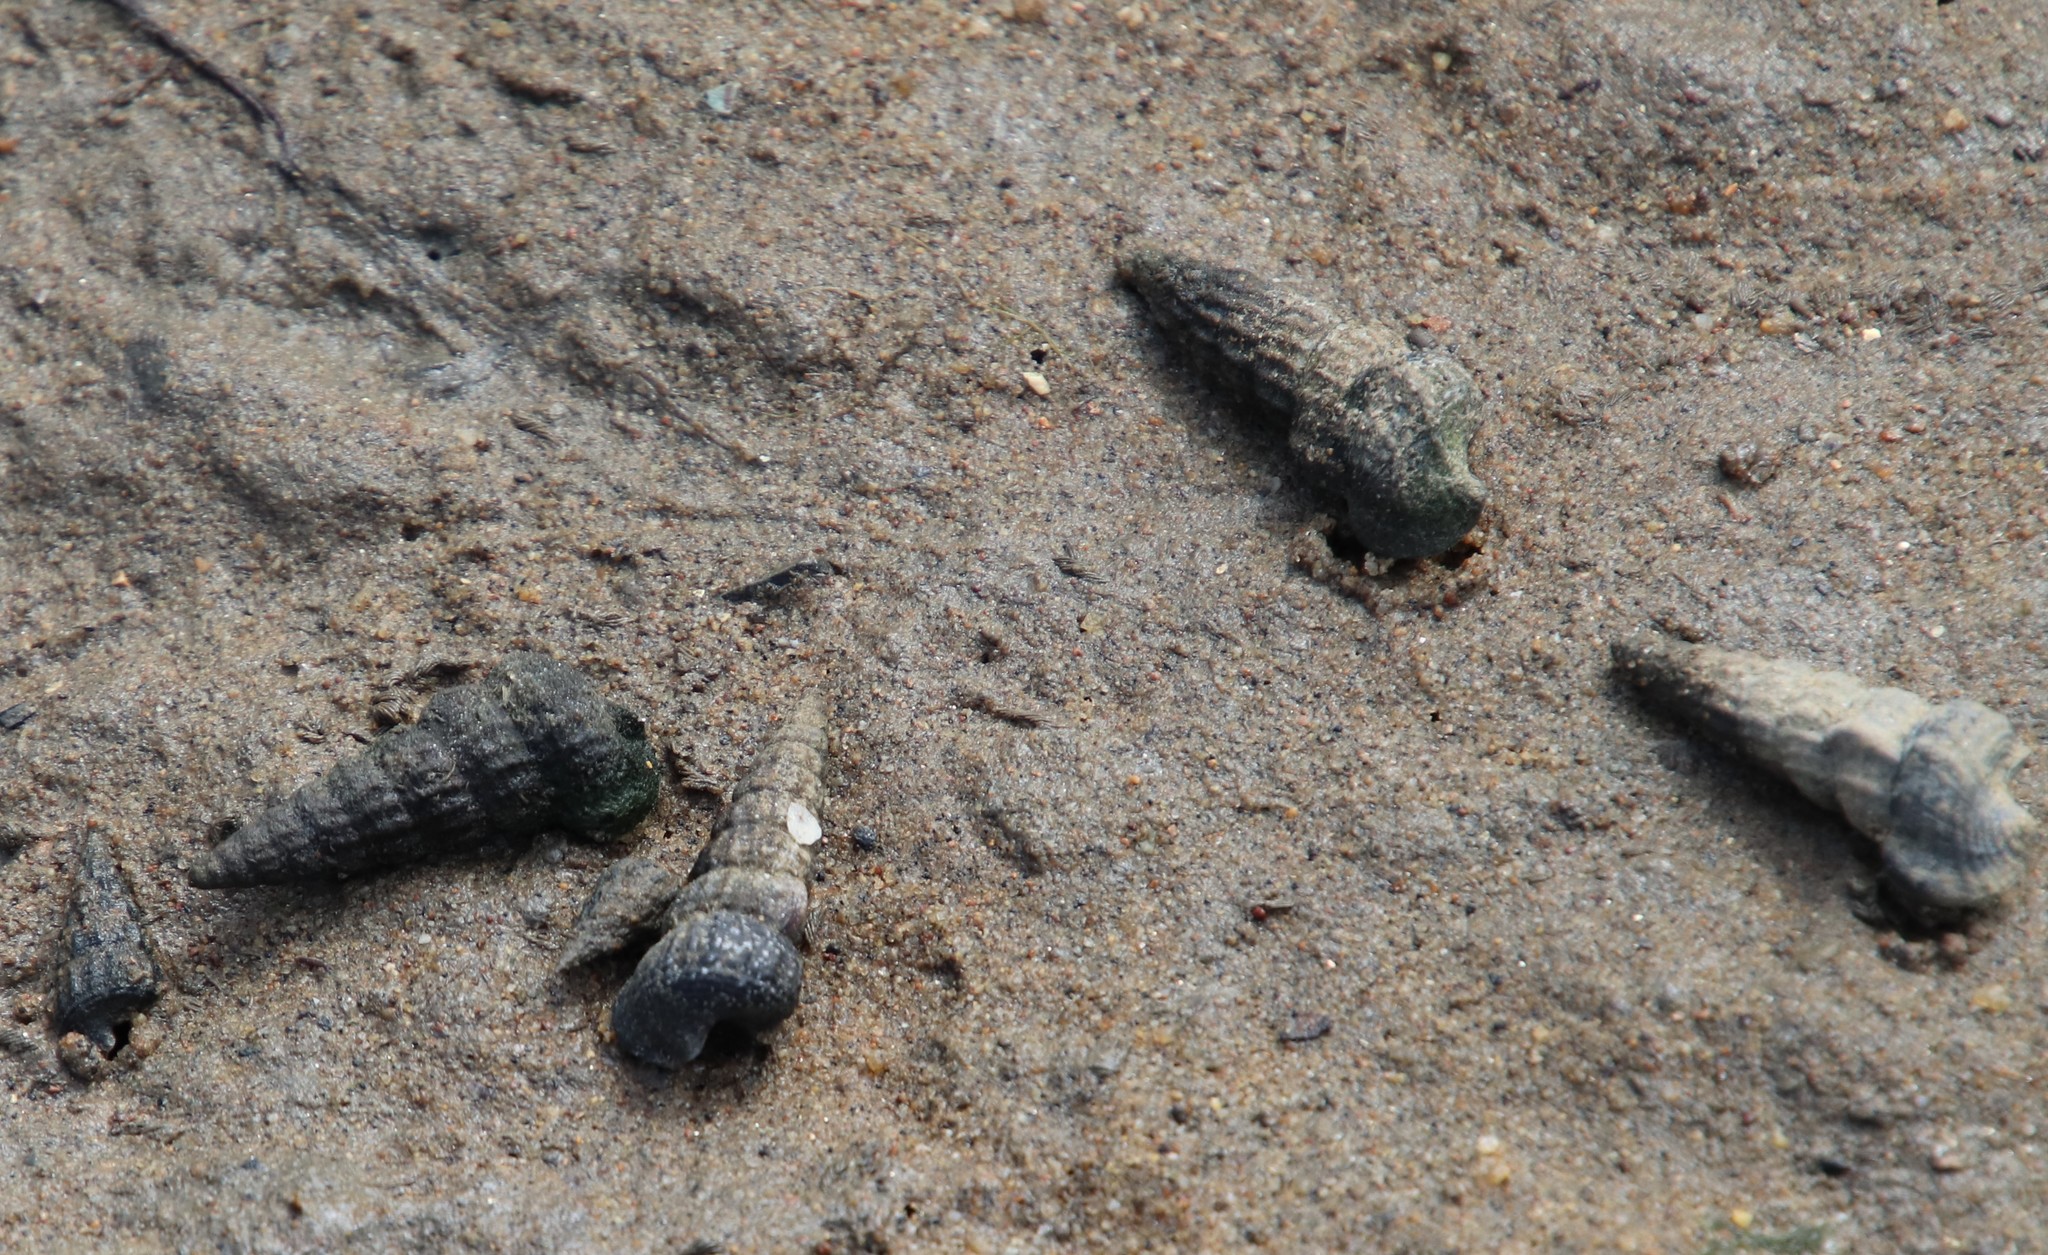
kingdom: Animalia
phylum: Mollusca
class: Gastropoda
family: Potamididae
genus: Cerithideopsis
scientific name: Cerithideopsis californica
